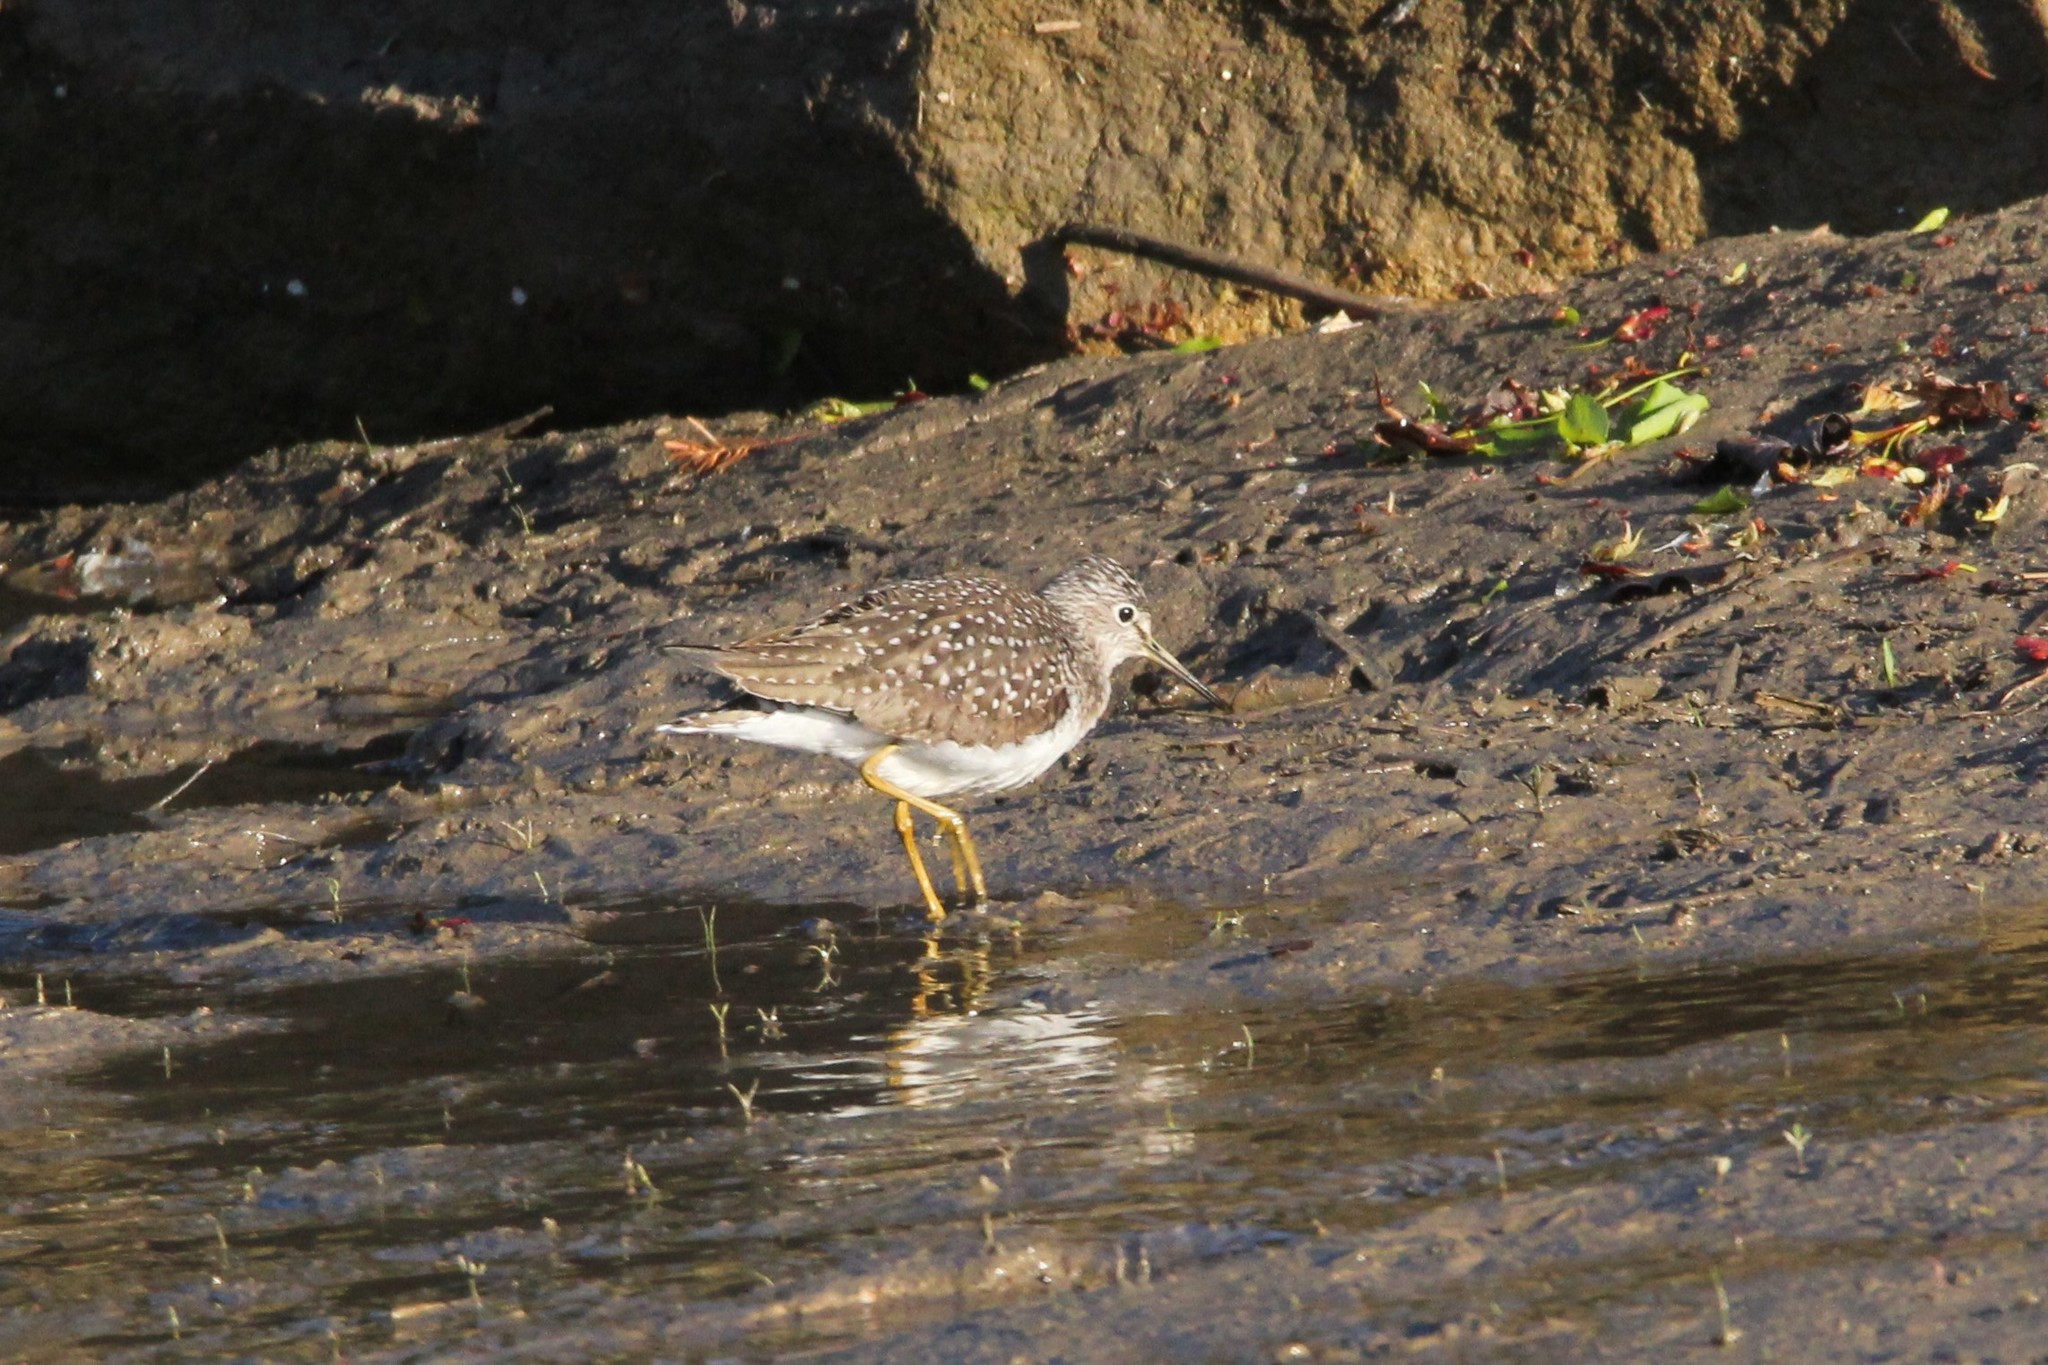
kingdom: Animalia
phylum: Chordata
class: Aves
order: Charadriiformes
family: Scolopacidae
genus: Tringa
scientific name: Tringa solitaria
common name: Solitary sandpiper
